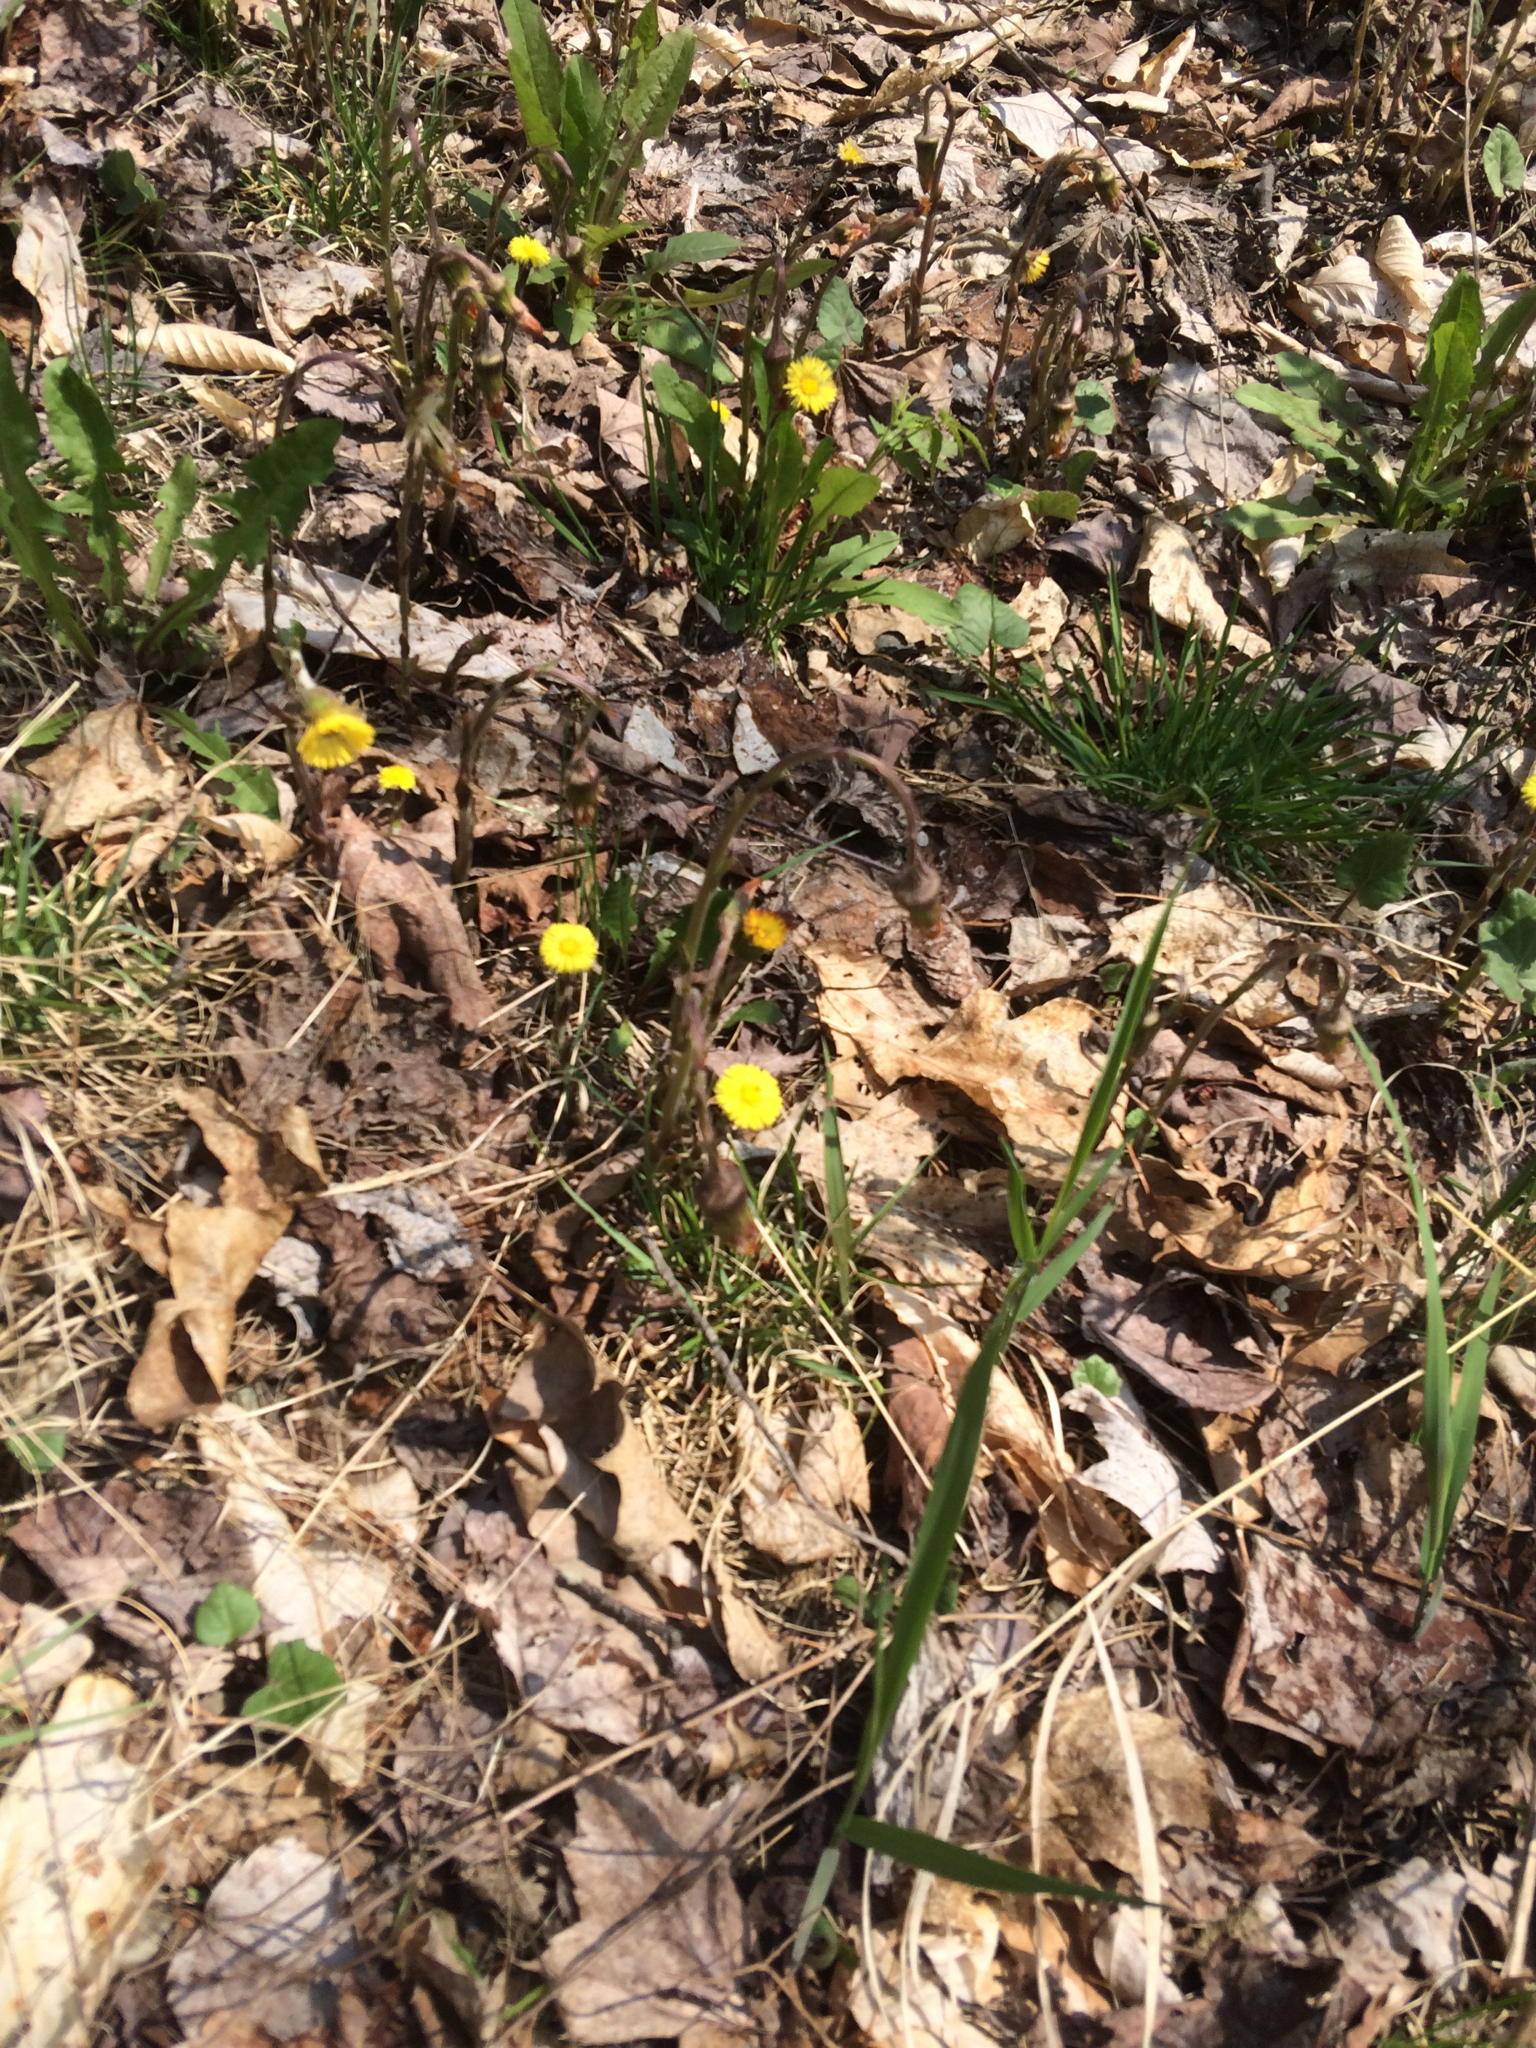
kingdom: Plantae
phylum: Tracheophyta
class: Magnoliopsida
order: Asterales
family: Asteraceae
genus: Tussilago
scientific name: Tussilago farfara
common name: Coltsfoot
